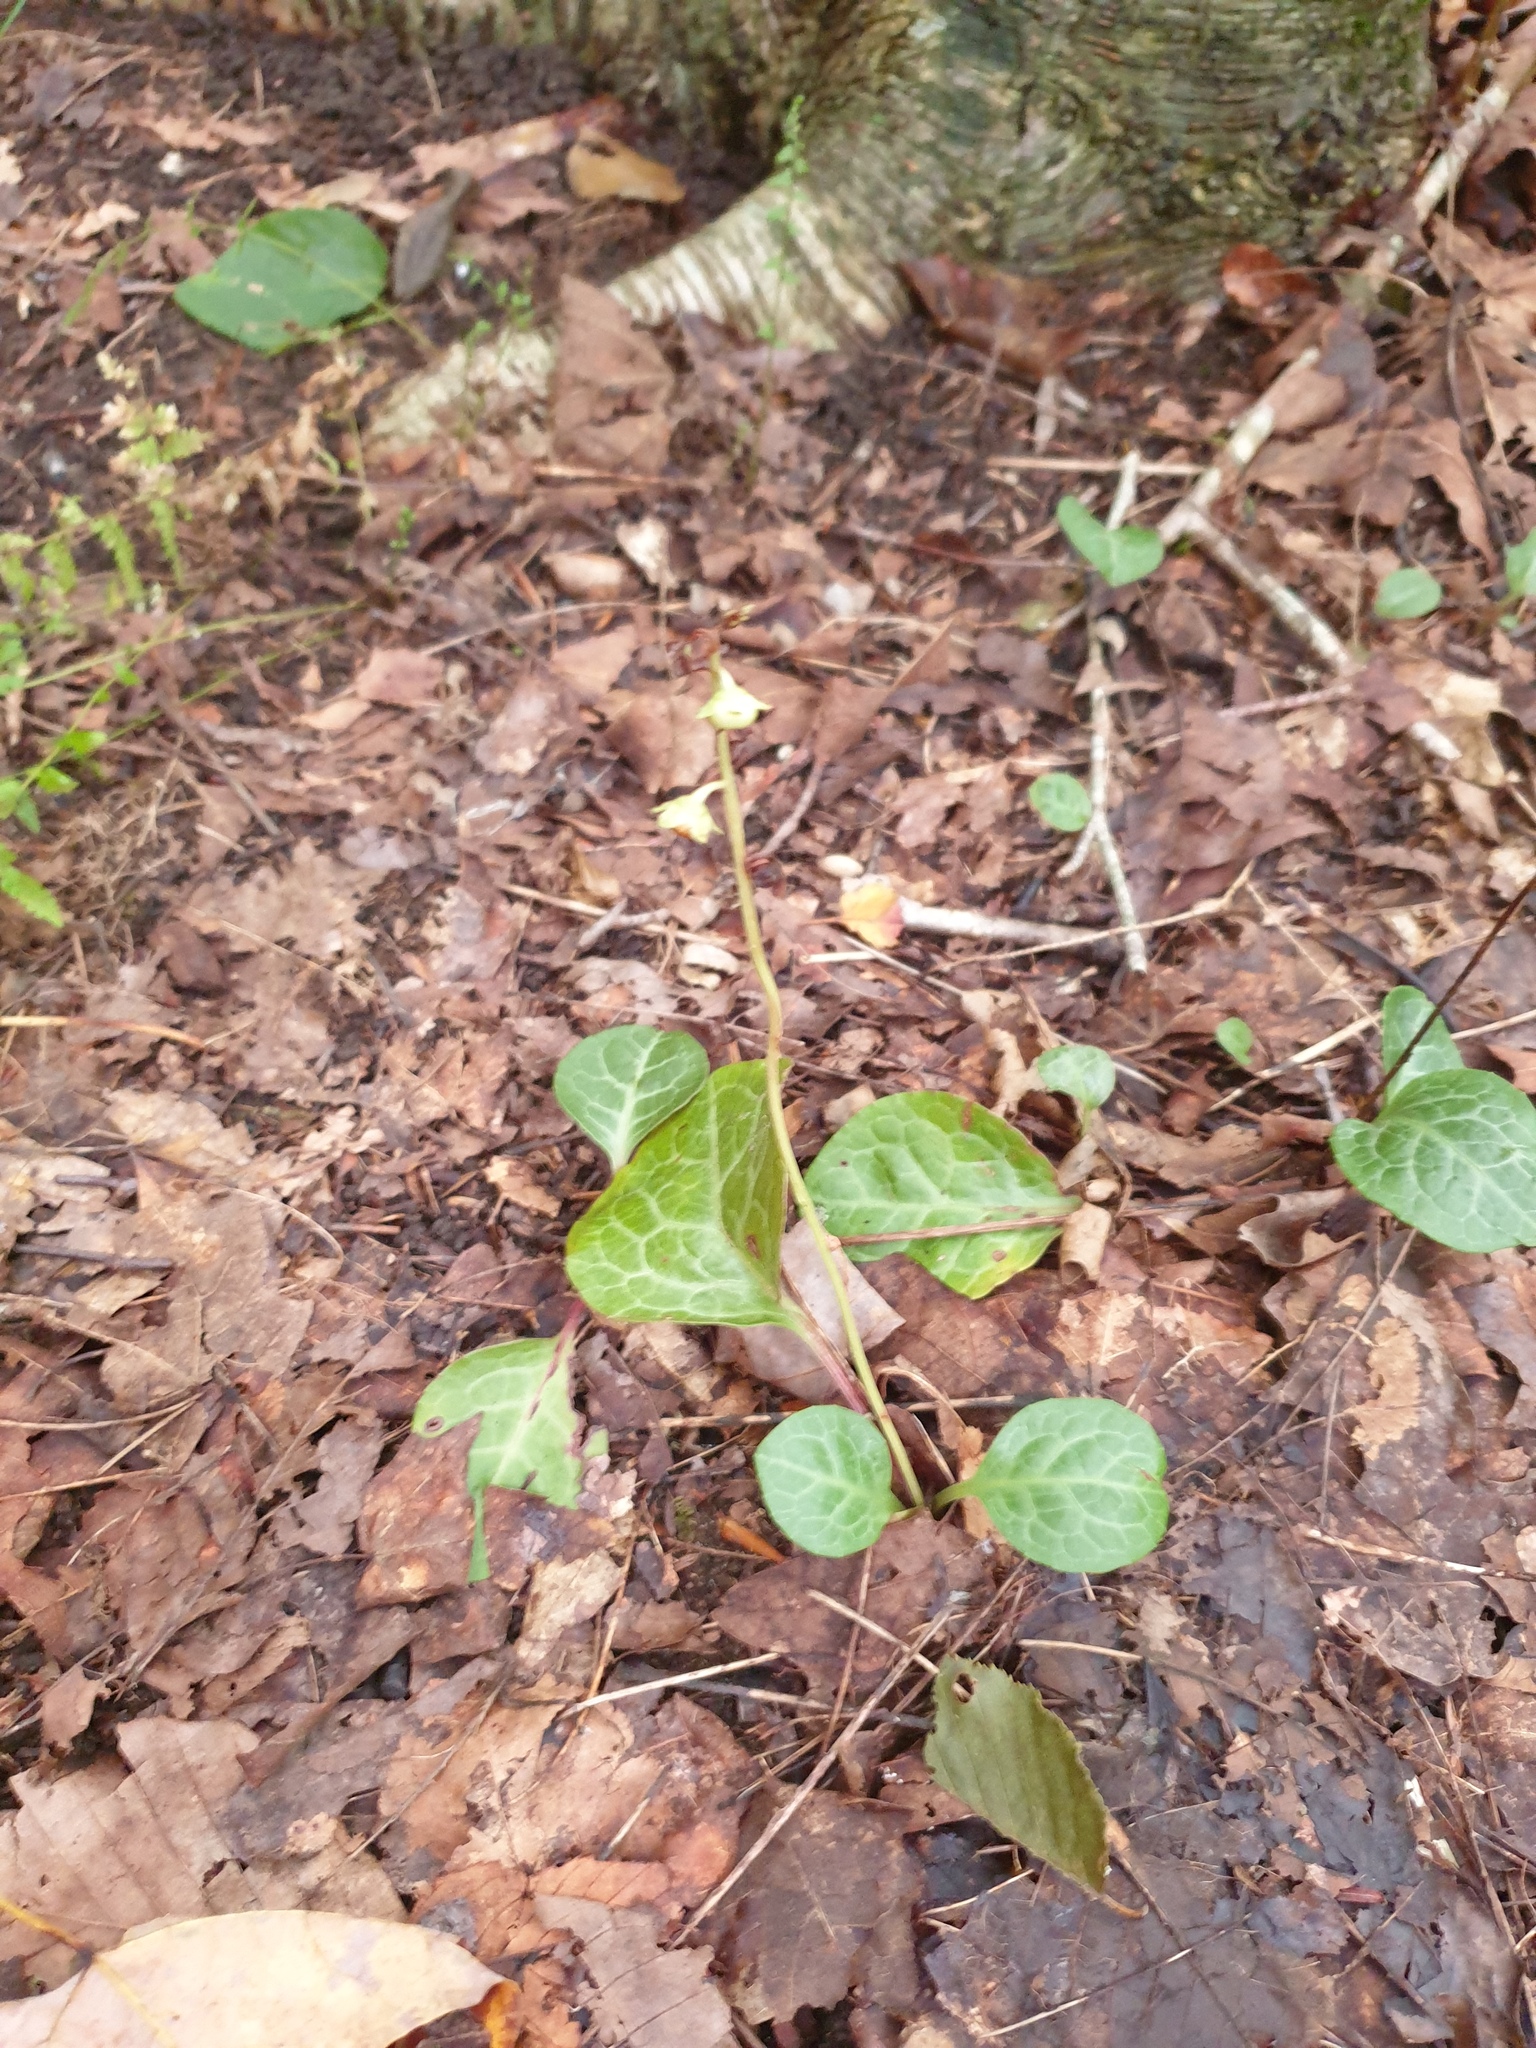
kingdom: Plantae
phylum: Tracheophyta
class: Magnoliopsida
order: Ericales
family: Ericaceae
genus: Pyrola
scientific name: Pyrola americana
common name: American wintergreen
